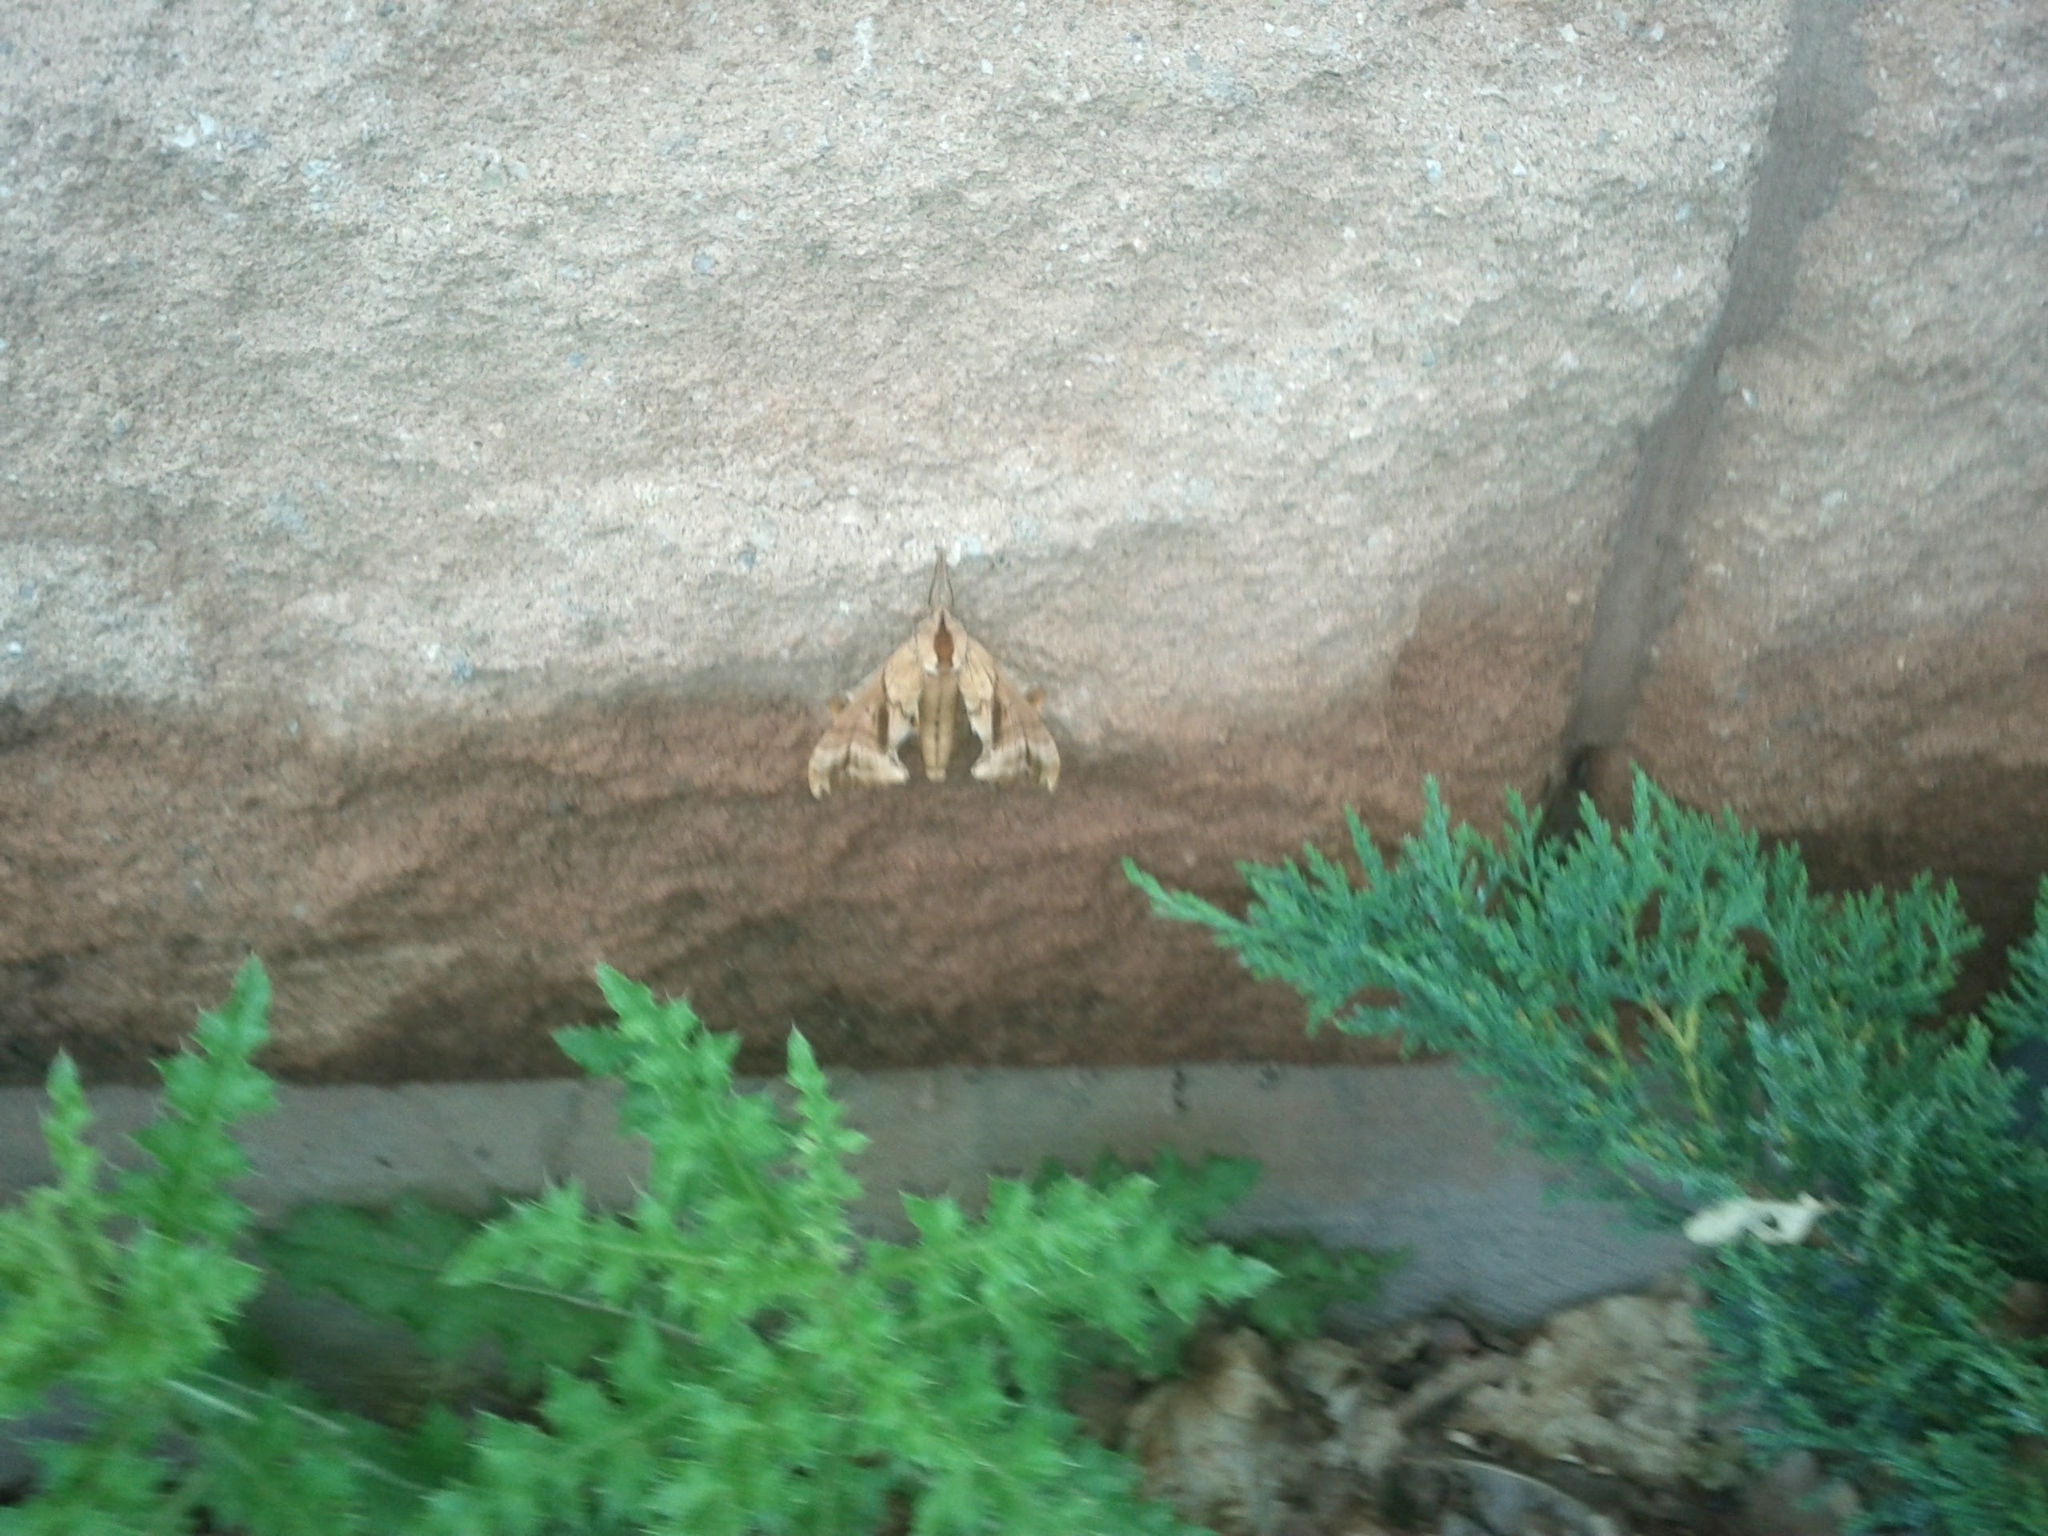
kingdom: Animalia
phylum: Arthropoda
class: Insecta
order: Lepidoptera
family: Sphingidae
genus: Paonias
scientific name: Paonias excaecata
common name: Blind-eyed sphinx
